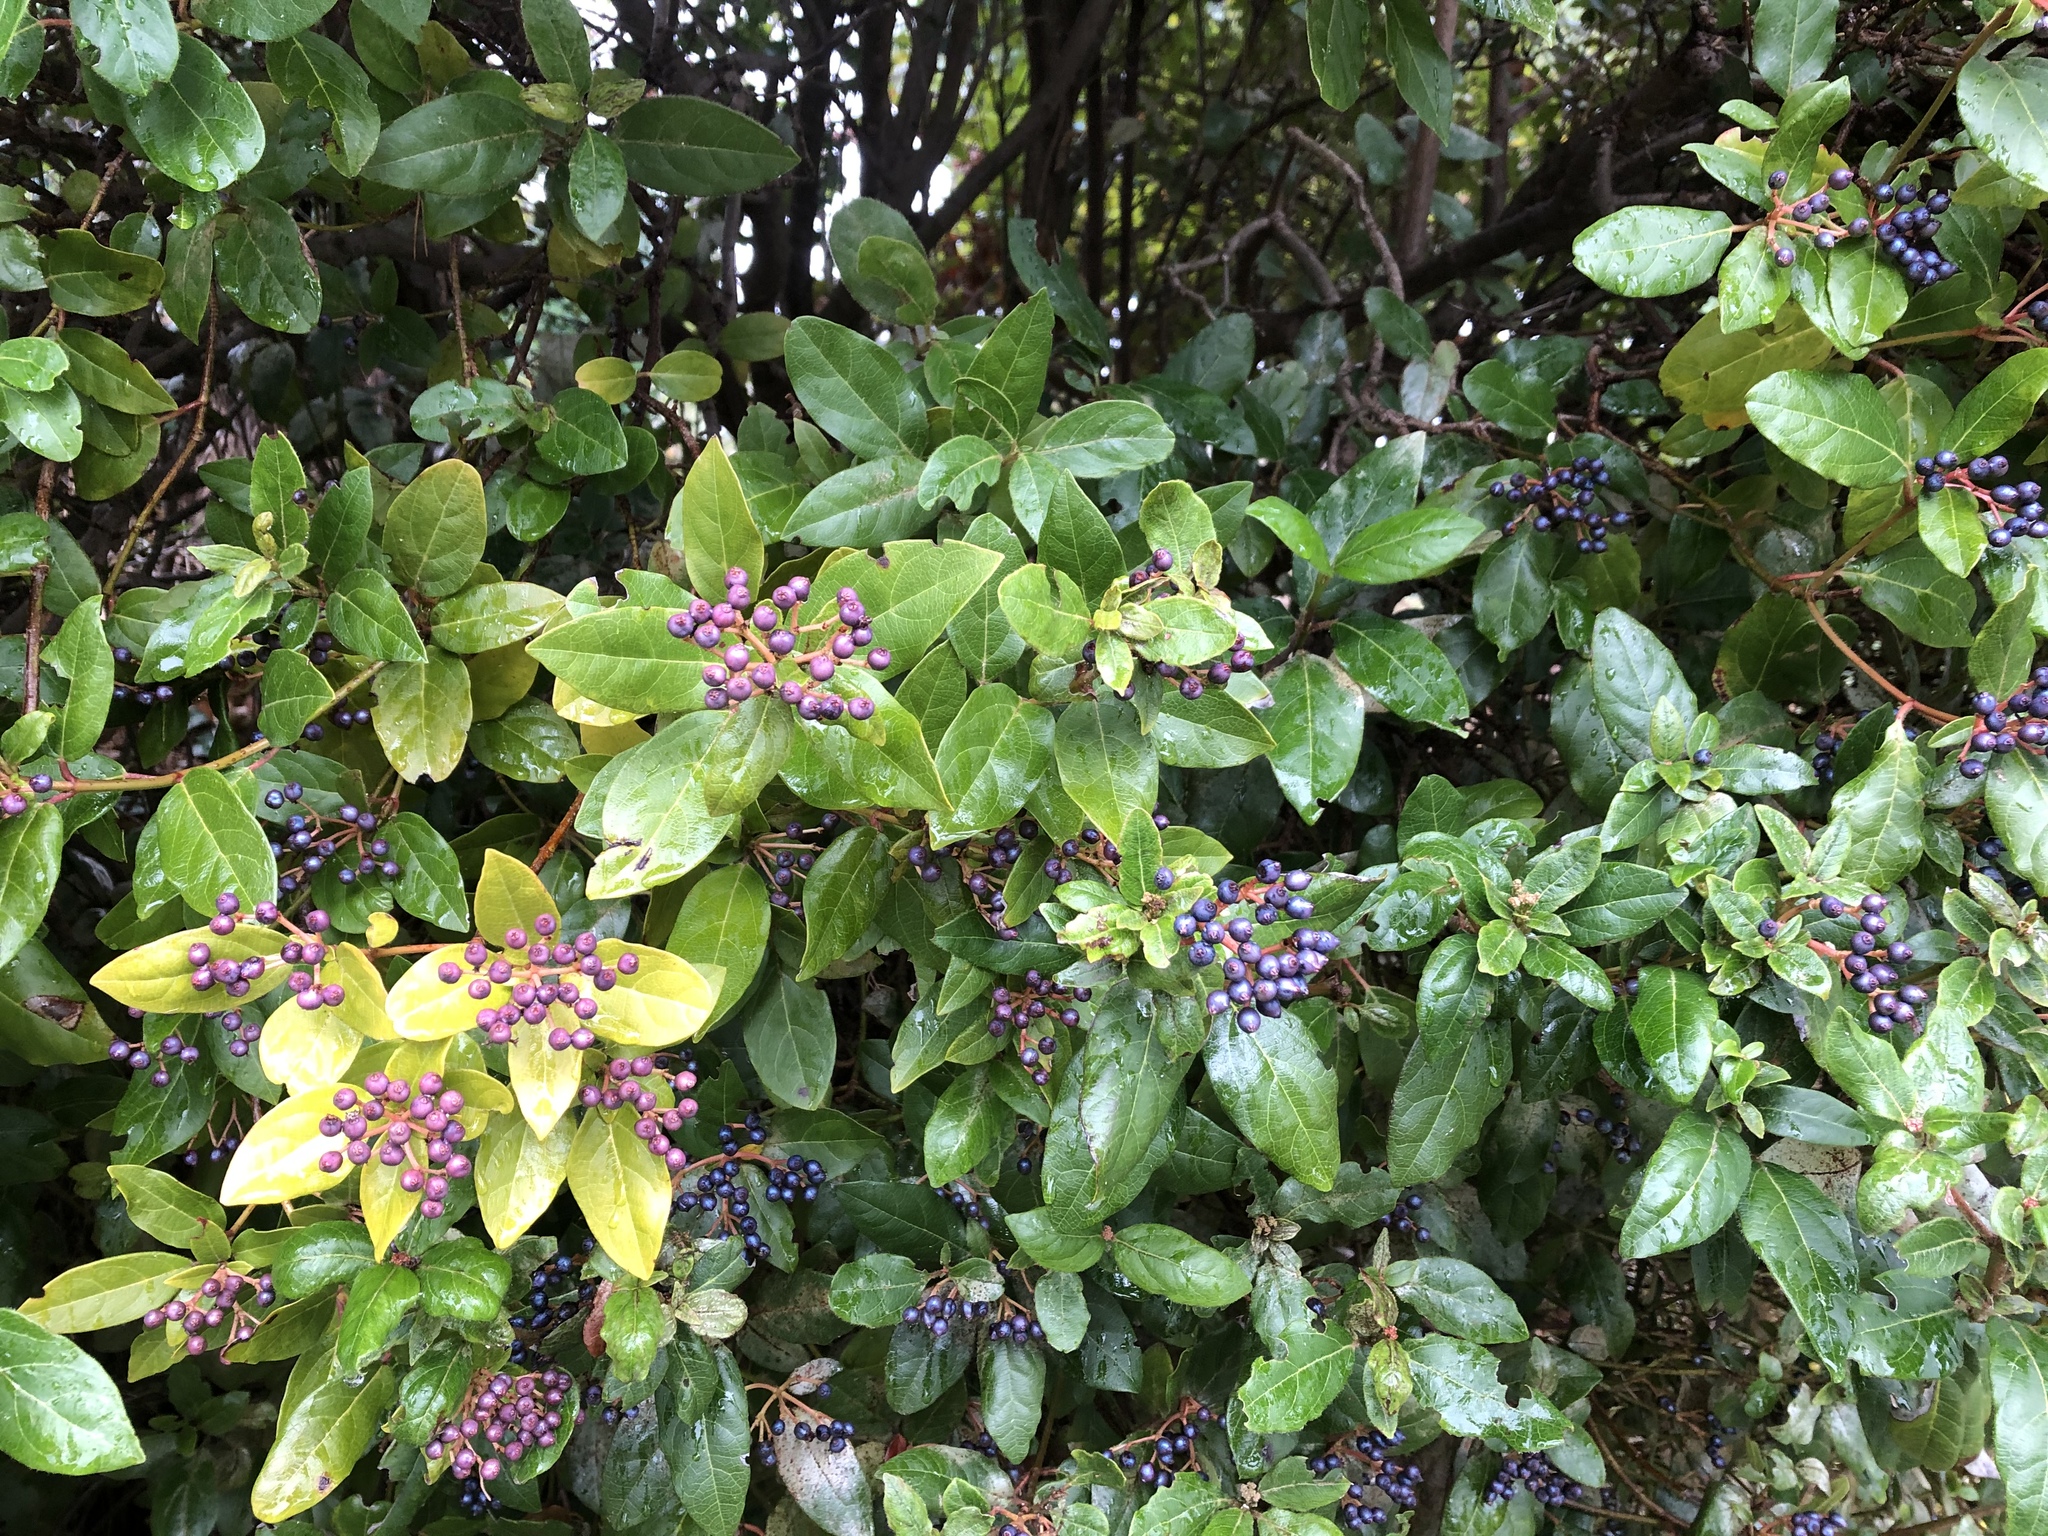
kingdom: Plantae
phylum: Tracheophyta
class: Magnoliopsida
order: Dipsacales
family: Viburnaceae
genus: Viburnum
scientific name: Viburnum tinus
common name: Laurustinus
